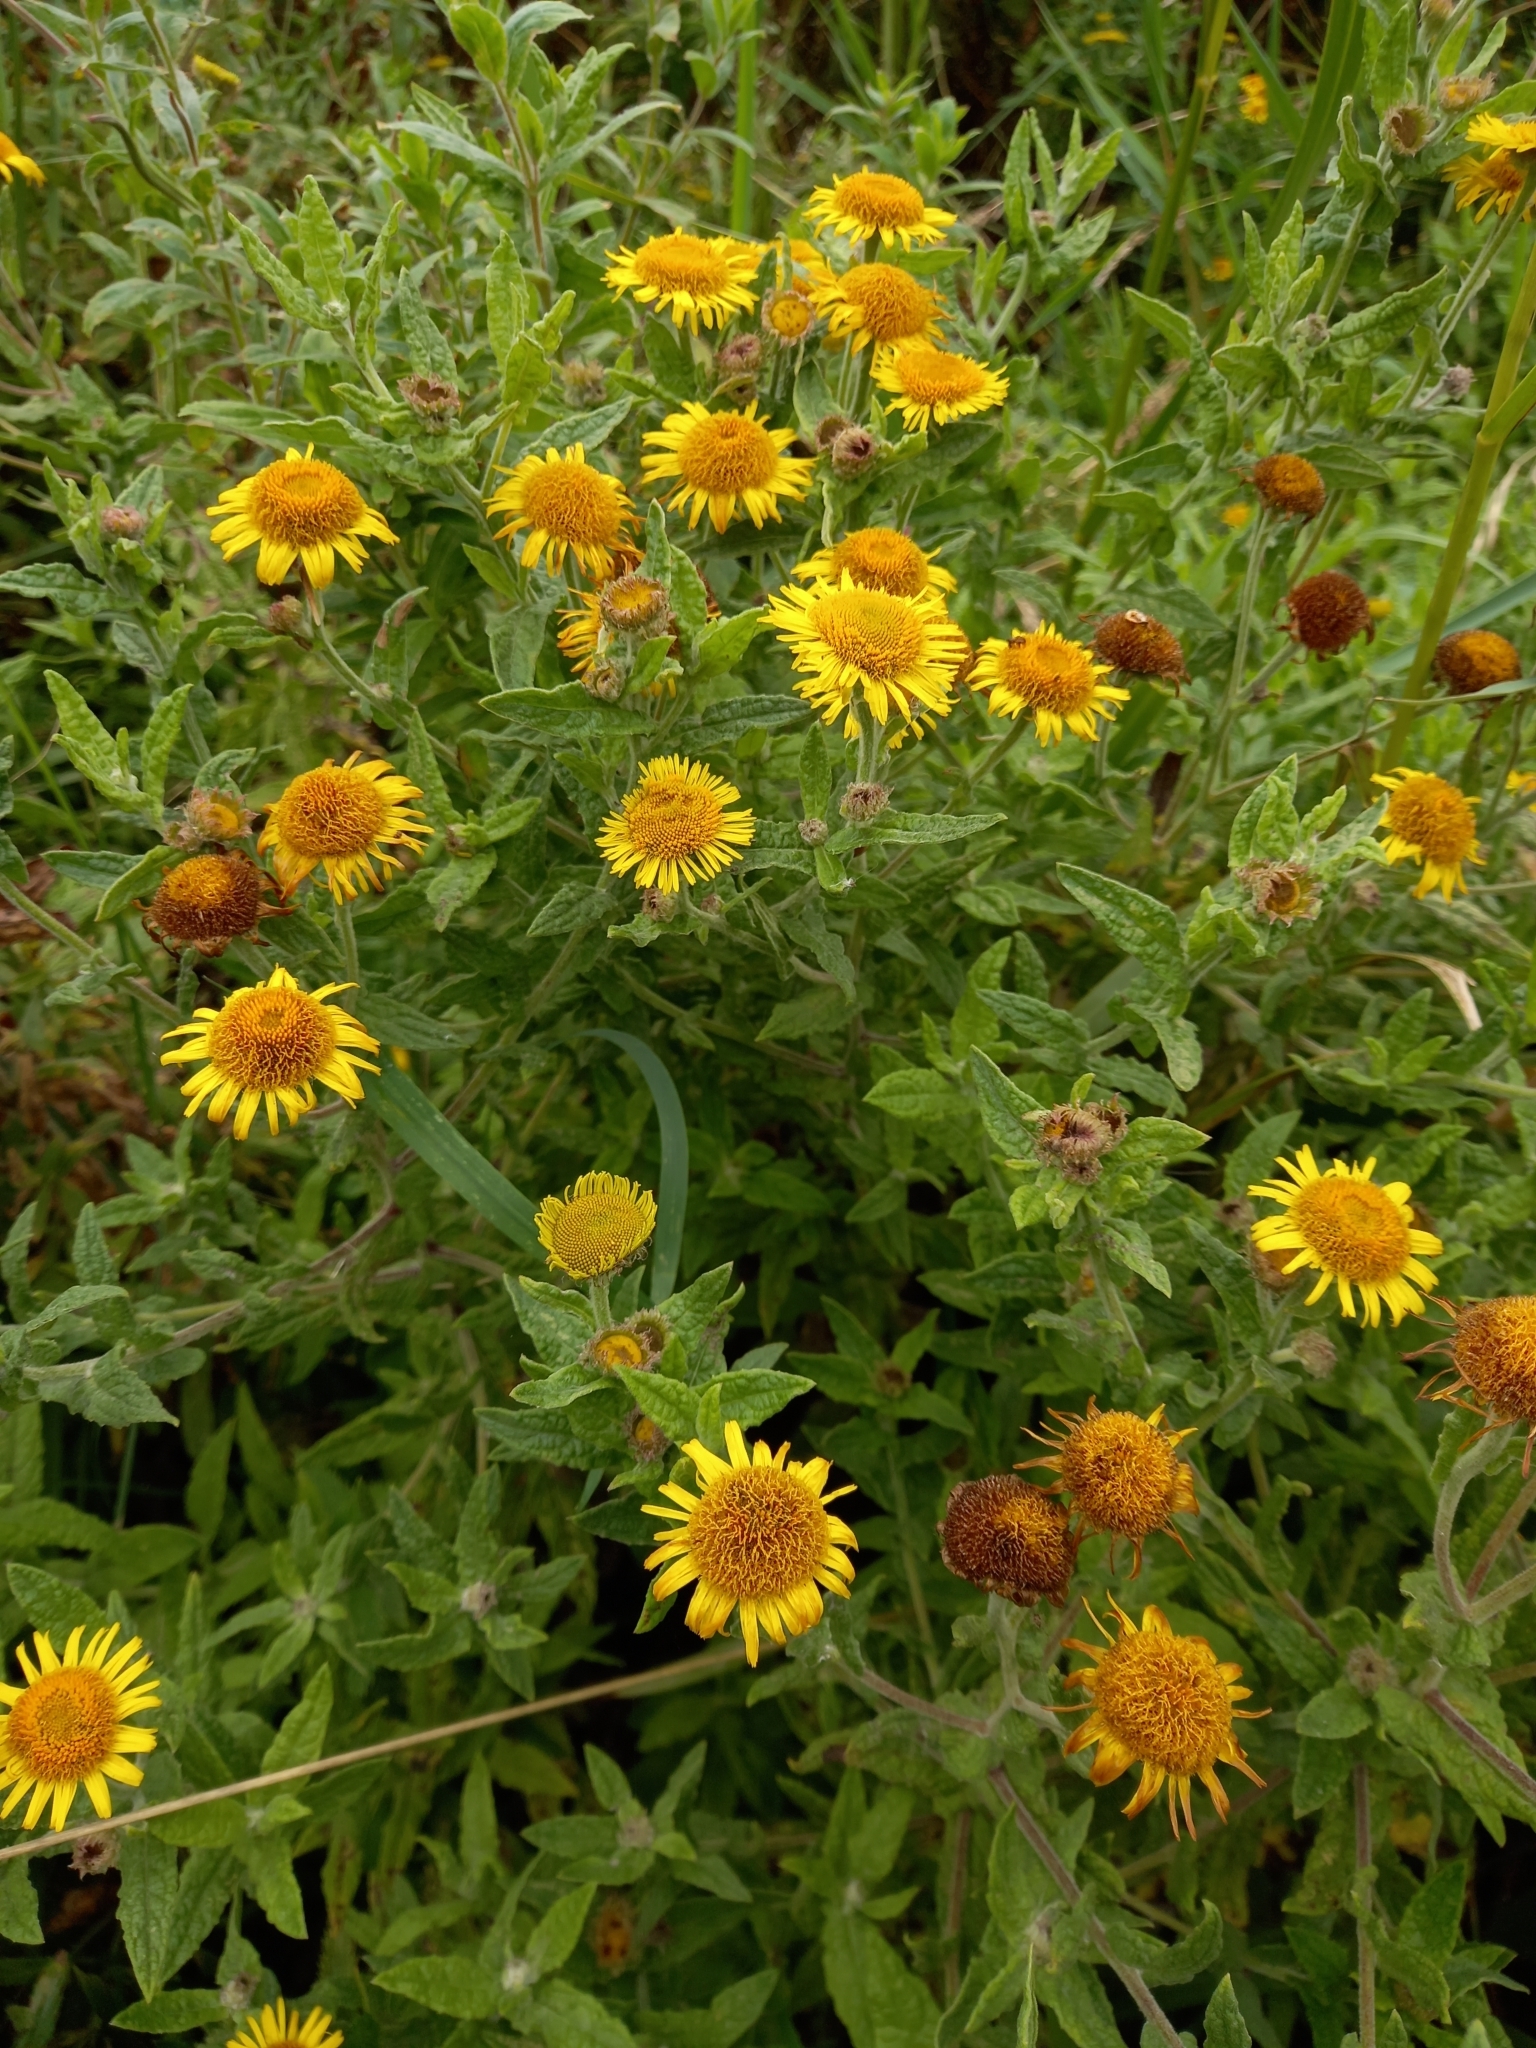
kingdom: Plantae
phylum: Tracheophyta
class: Magnoliopsida
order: Asterales
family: Asteraceae
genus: Pulicaria
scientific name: Pulicaria dysenterica
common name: Common fleabane
